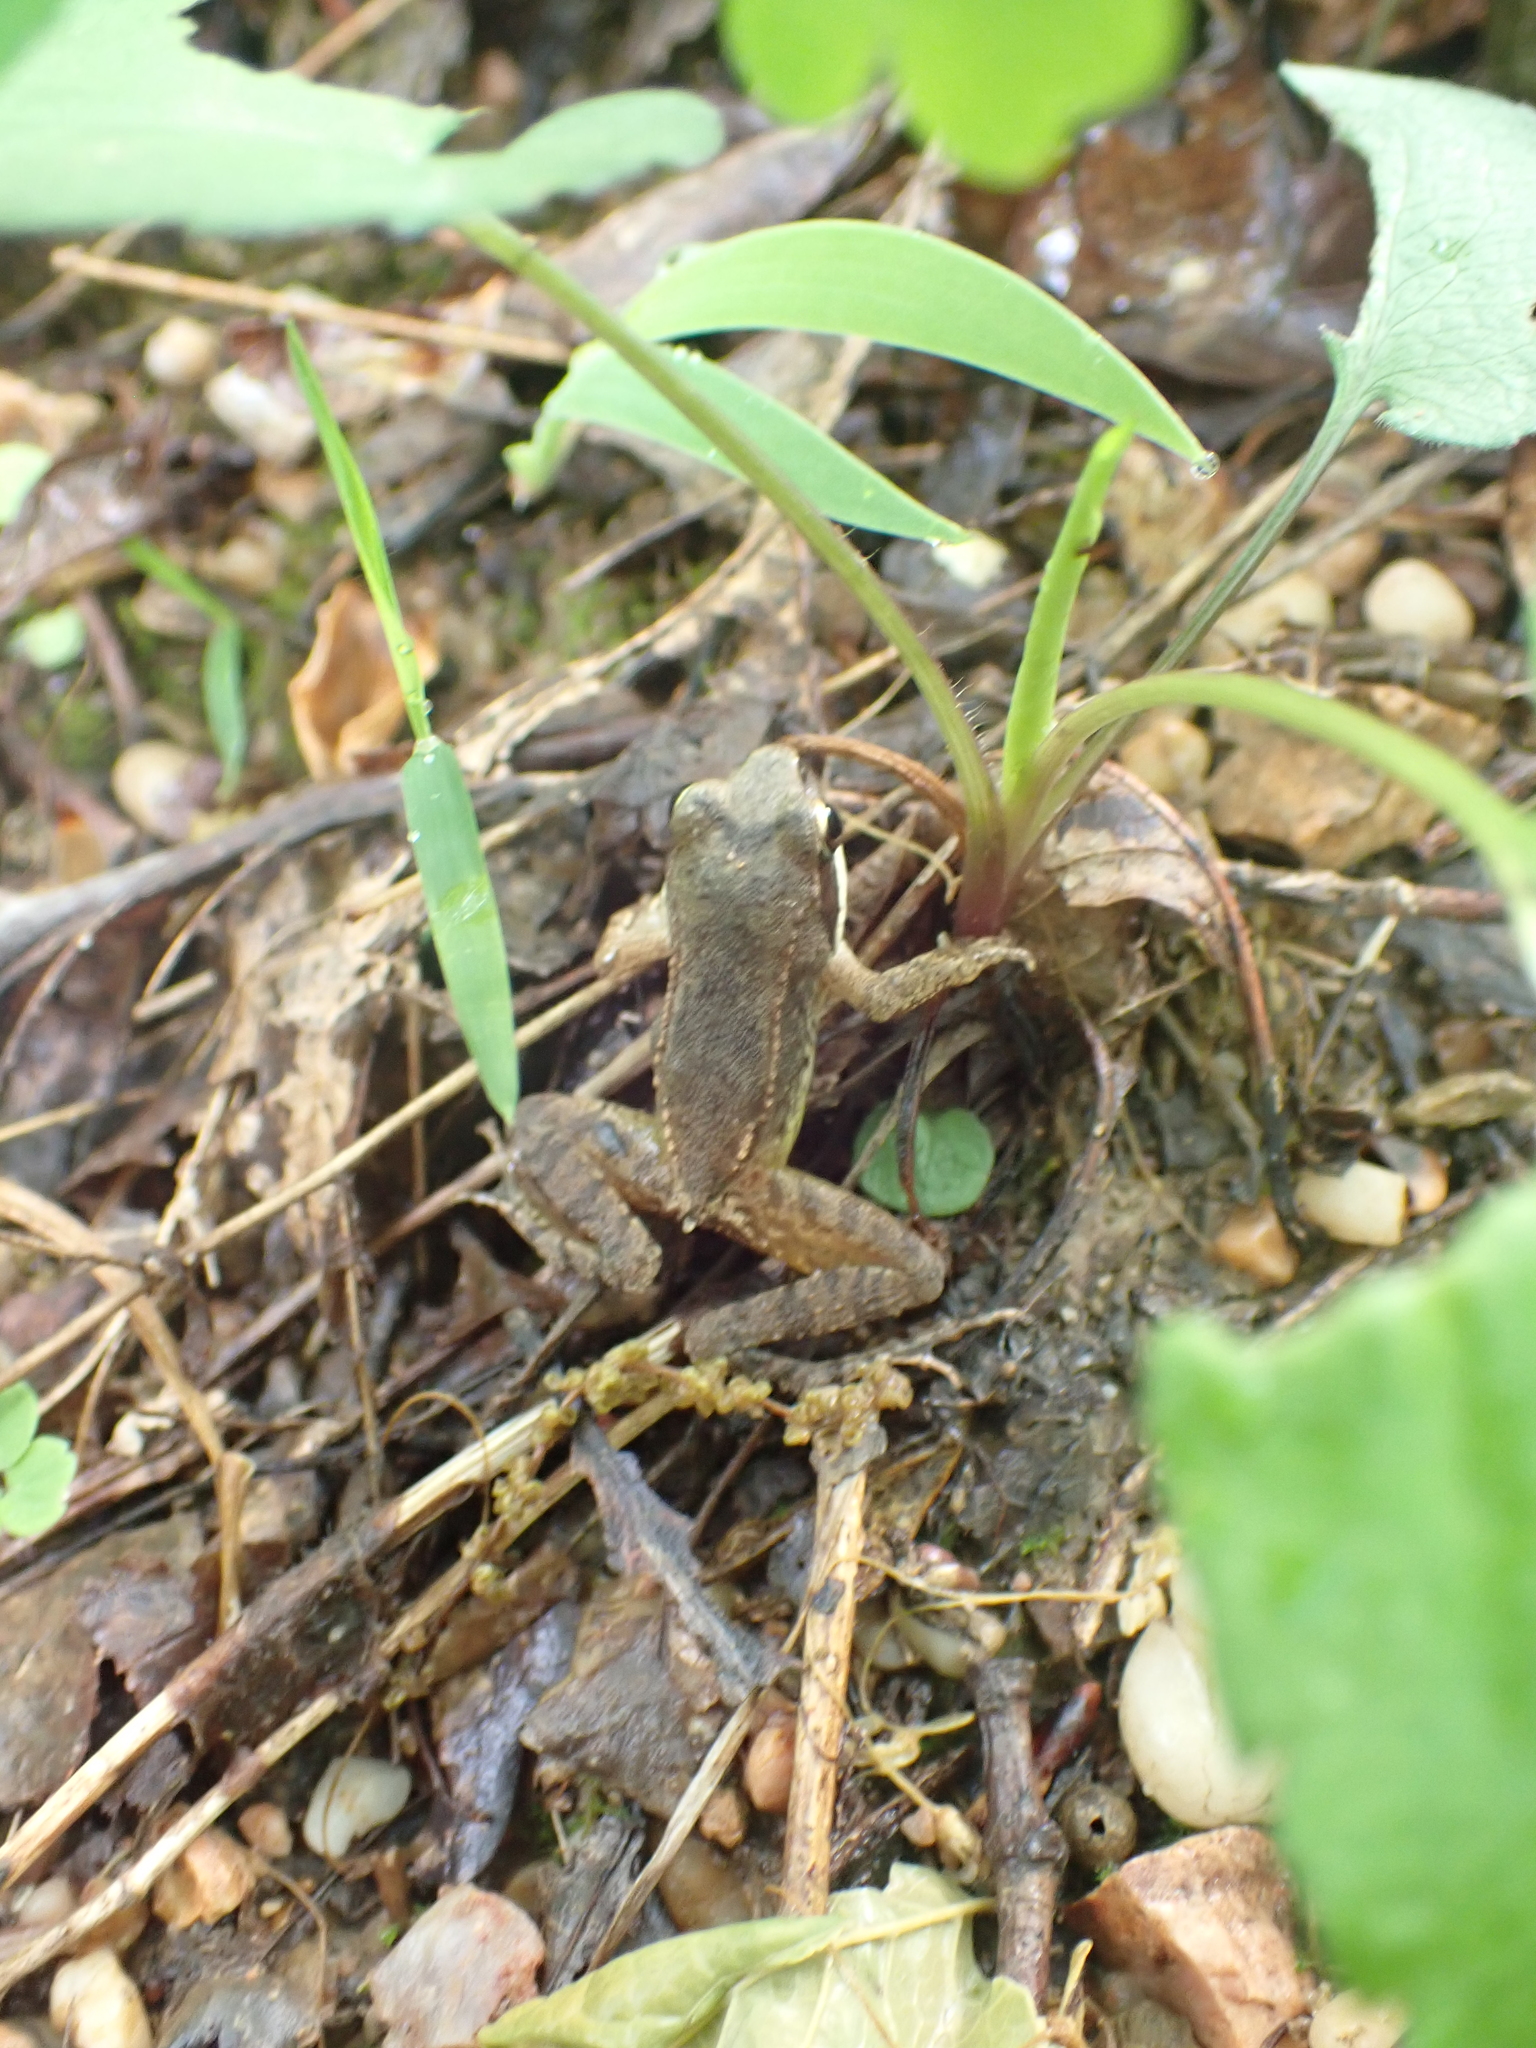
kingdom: Animalia
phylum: Chordata
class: Amphibia
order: Anura
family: Ranidae
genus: Lithobates
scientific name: Lithobates sylvaticus
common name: Wood frog
